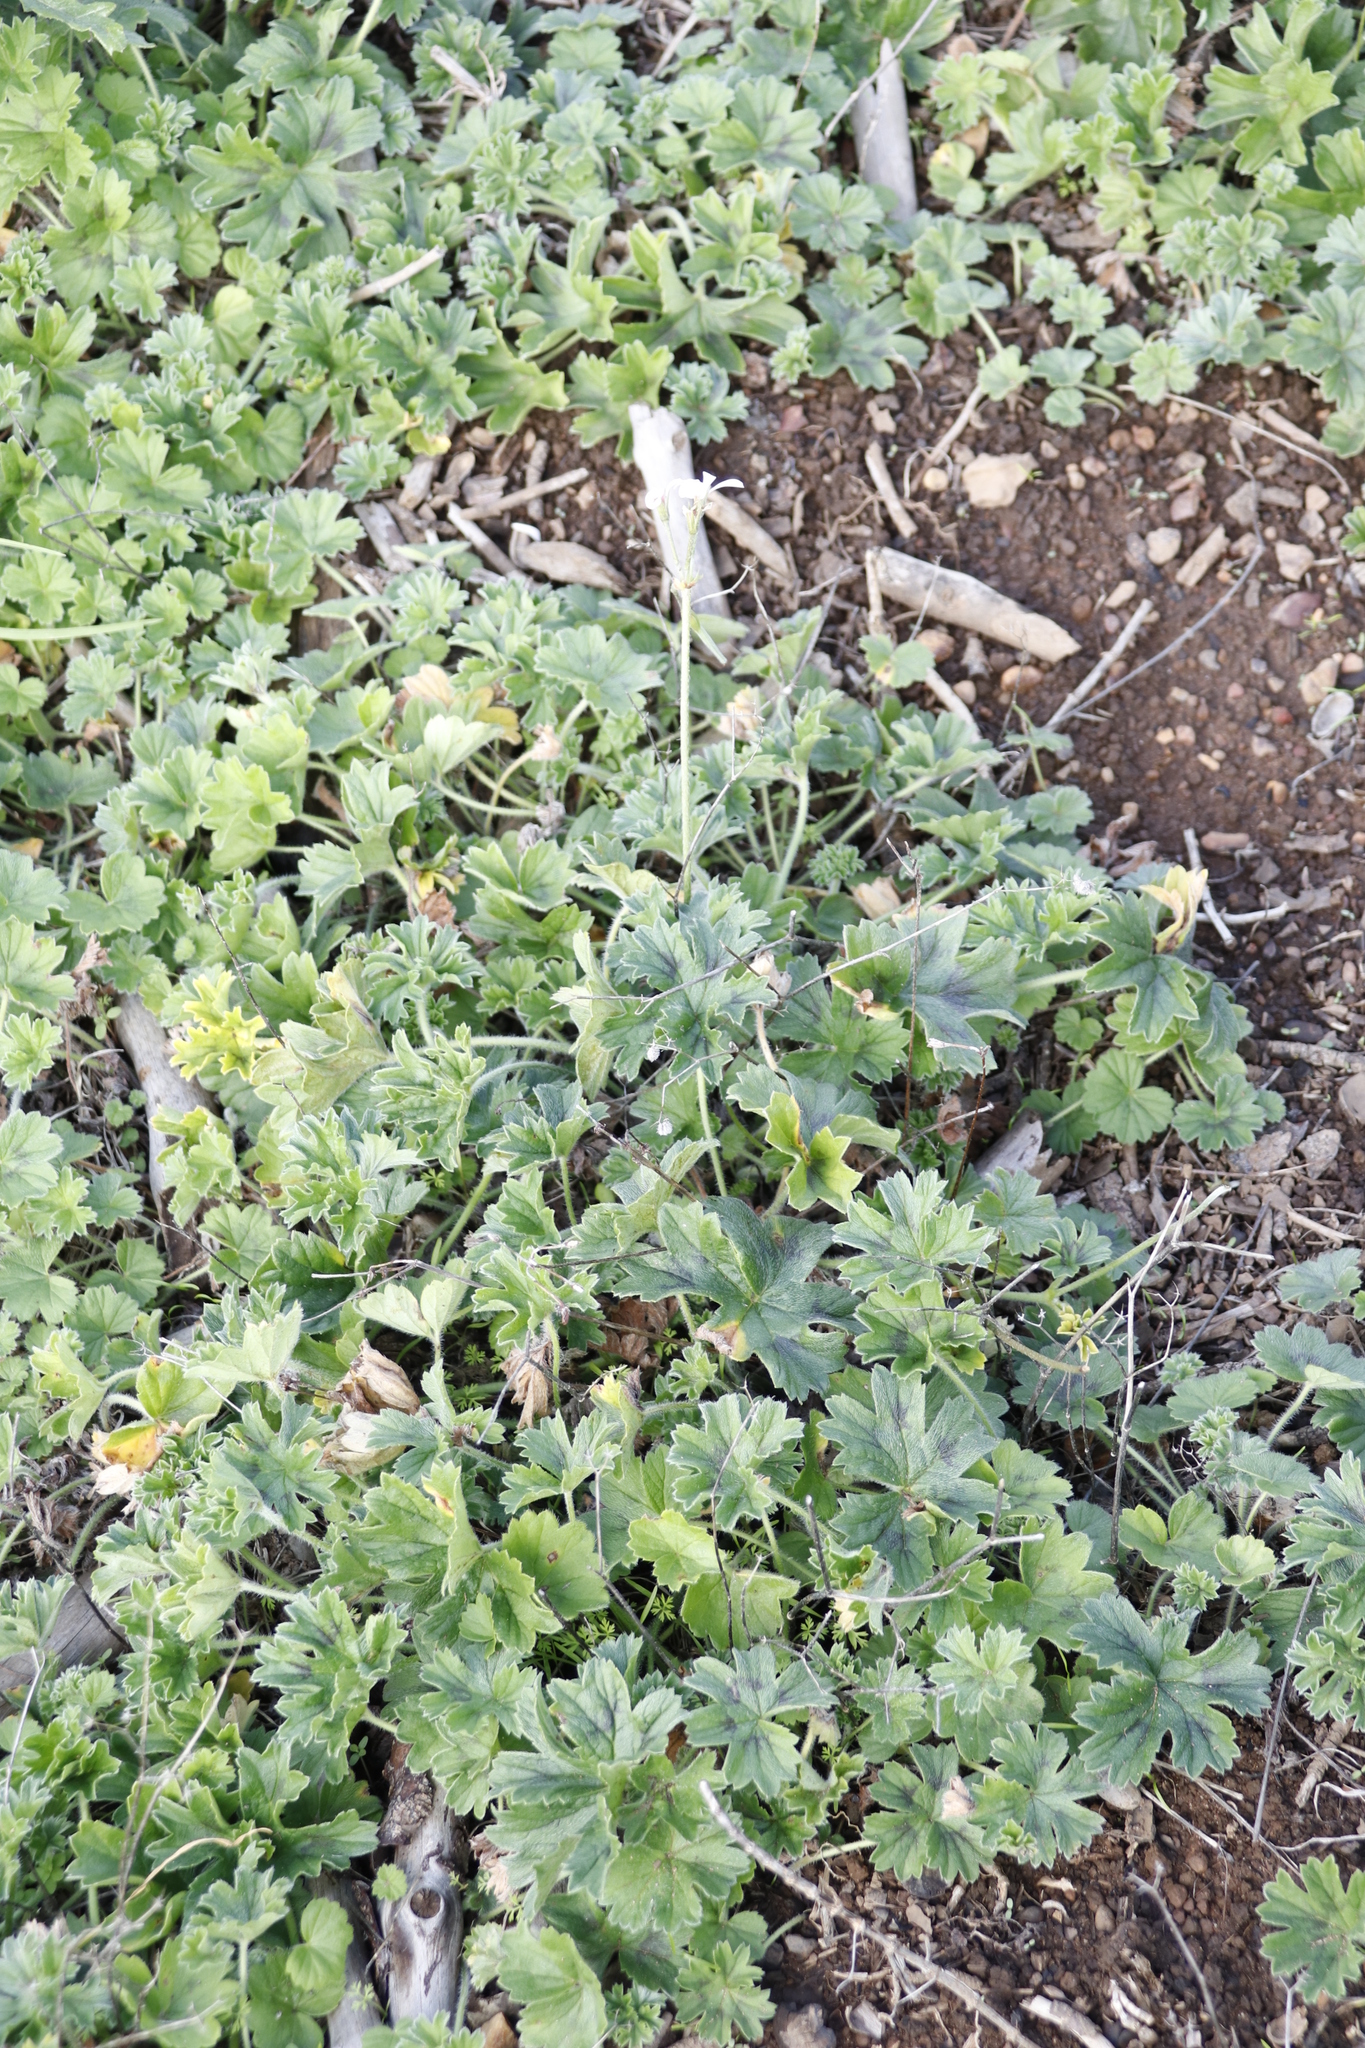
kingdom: Plantae
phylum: Tracheophyta
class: Magnoliopsida
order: Geraniales
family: Geraniaceae
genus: Pelargonium
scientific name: Pelargonium alchemilloides
